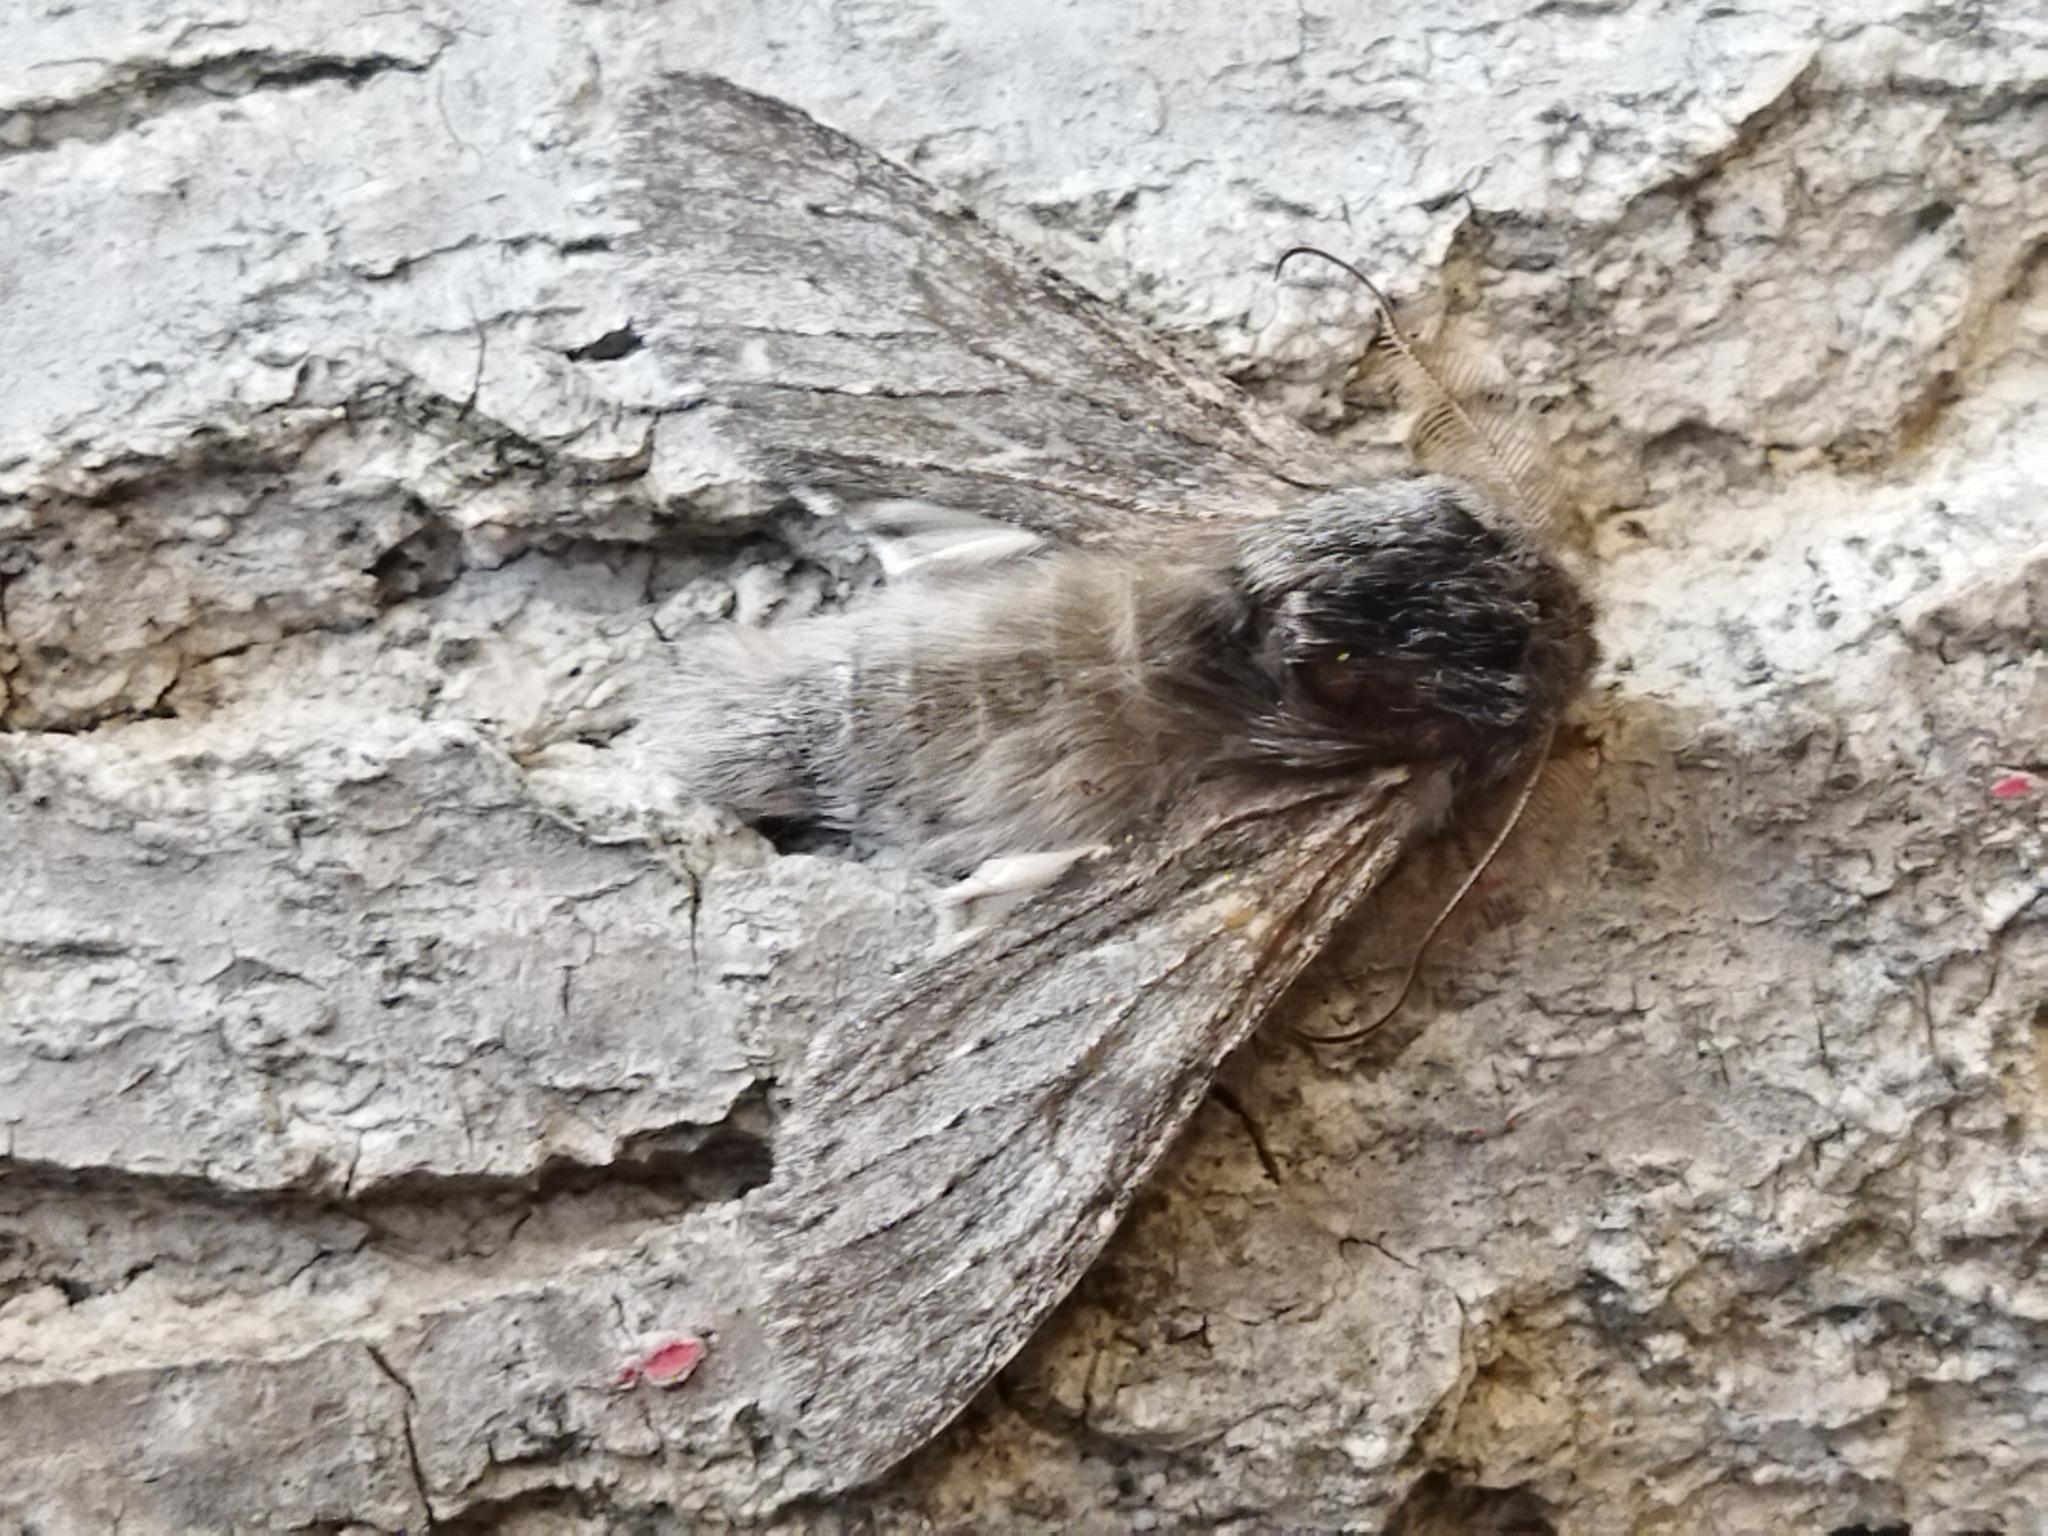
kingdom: Animalia
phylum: Arthropoda
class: Insecta
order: Lepidoptera
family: Notodontidae
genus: Dicranura
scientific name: Dicranura ulmi
